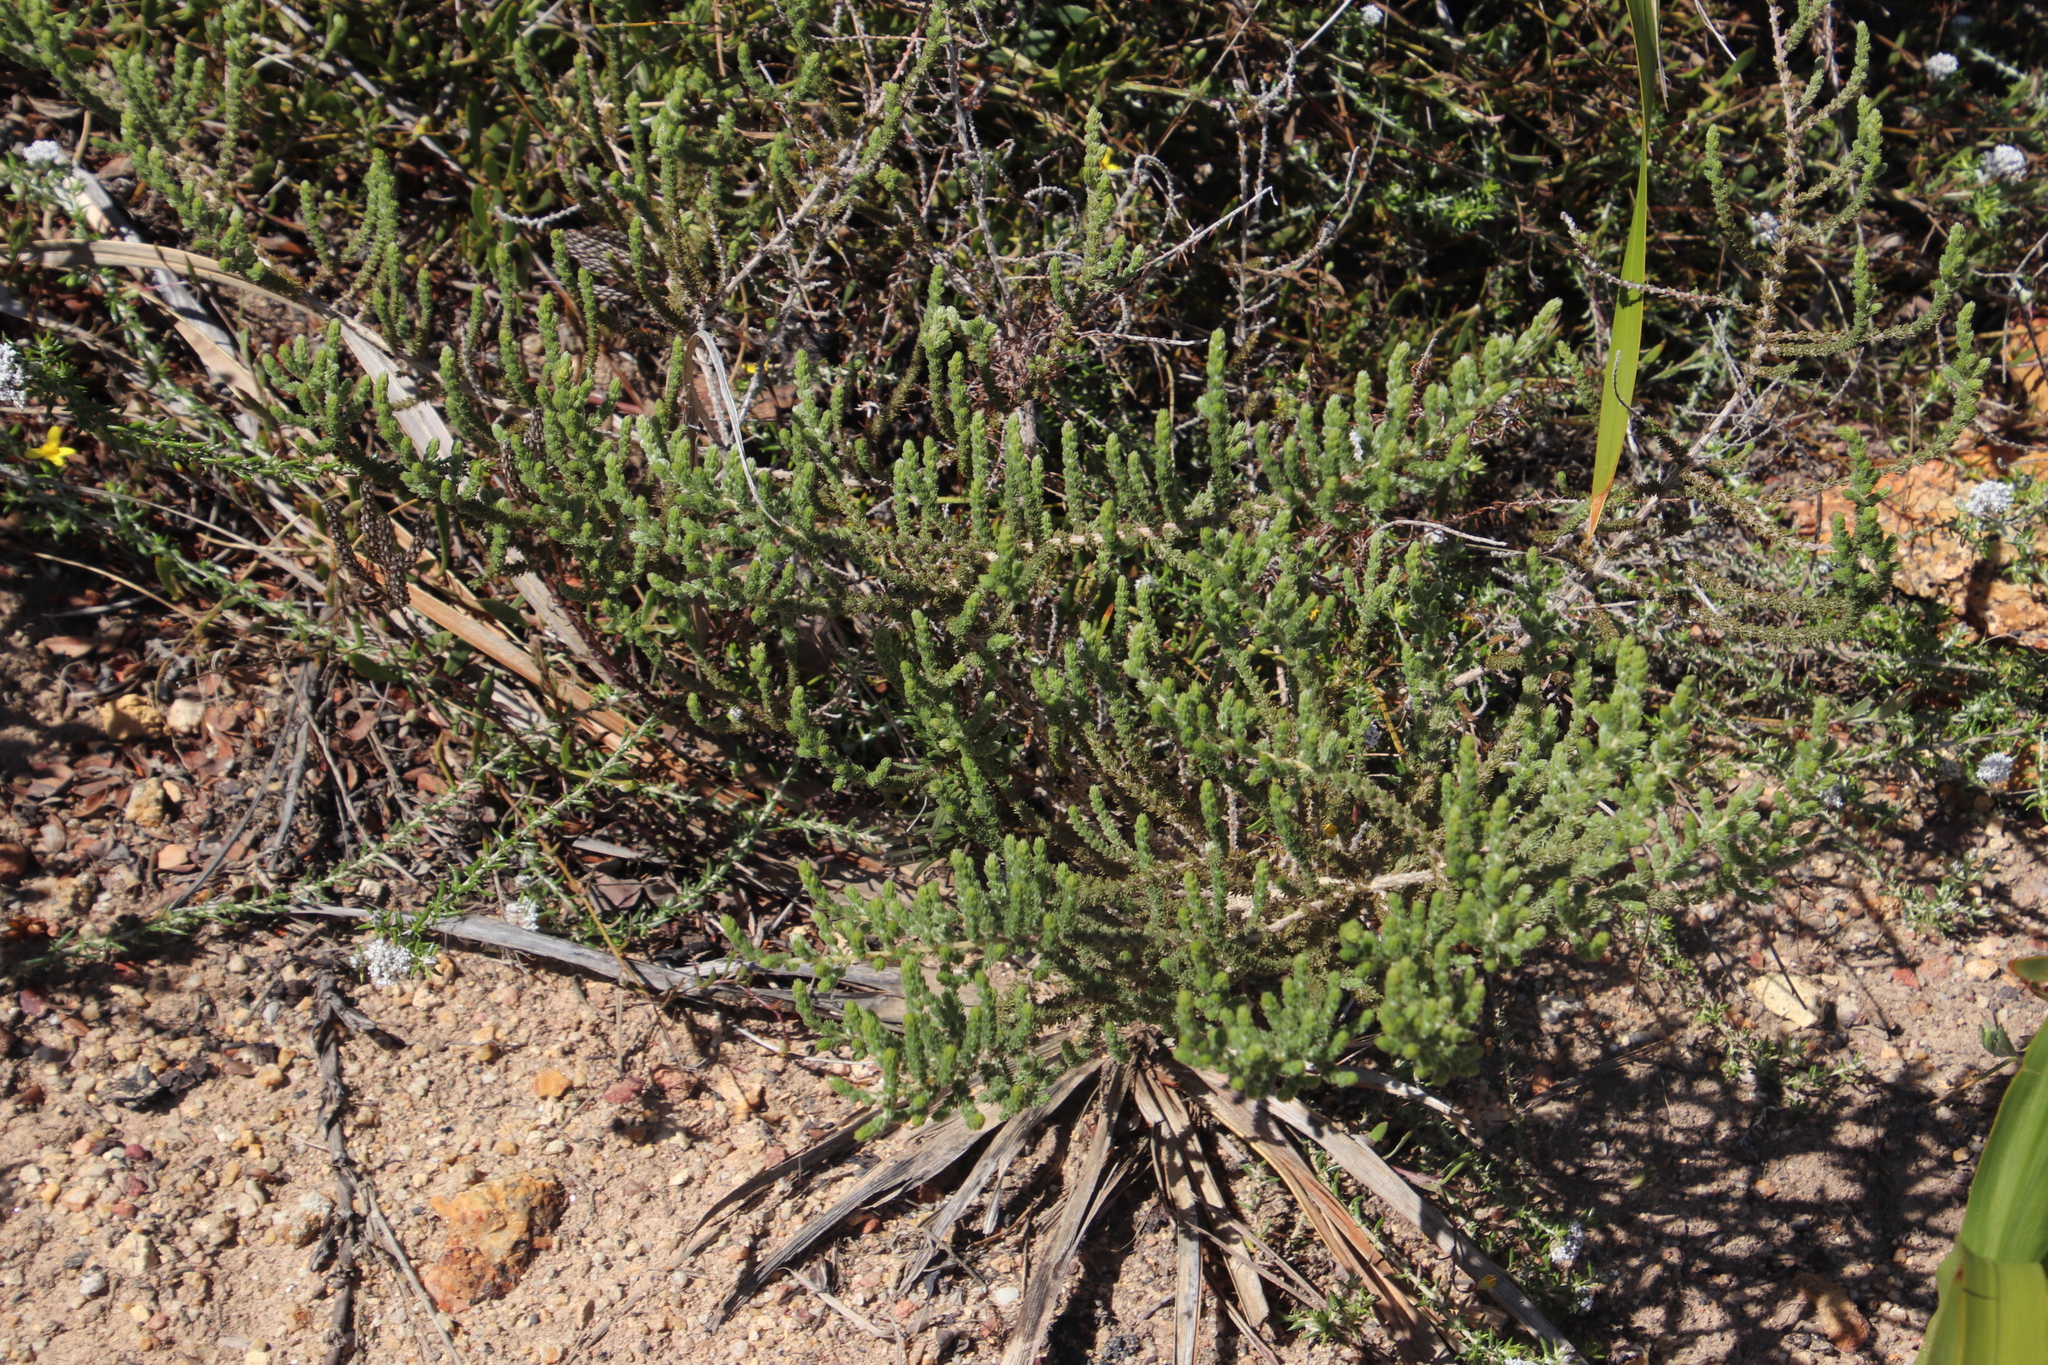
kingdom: Plantae
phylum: Tracheophyta
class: Magnoliopsida
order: Fabales
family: Fabaceae
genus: Aspalathus
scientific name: Aspalathus ericifolia
